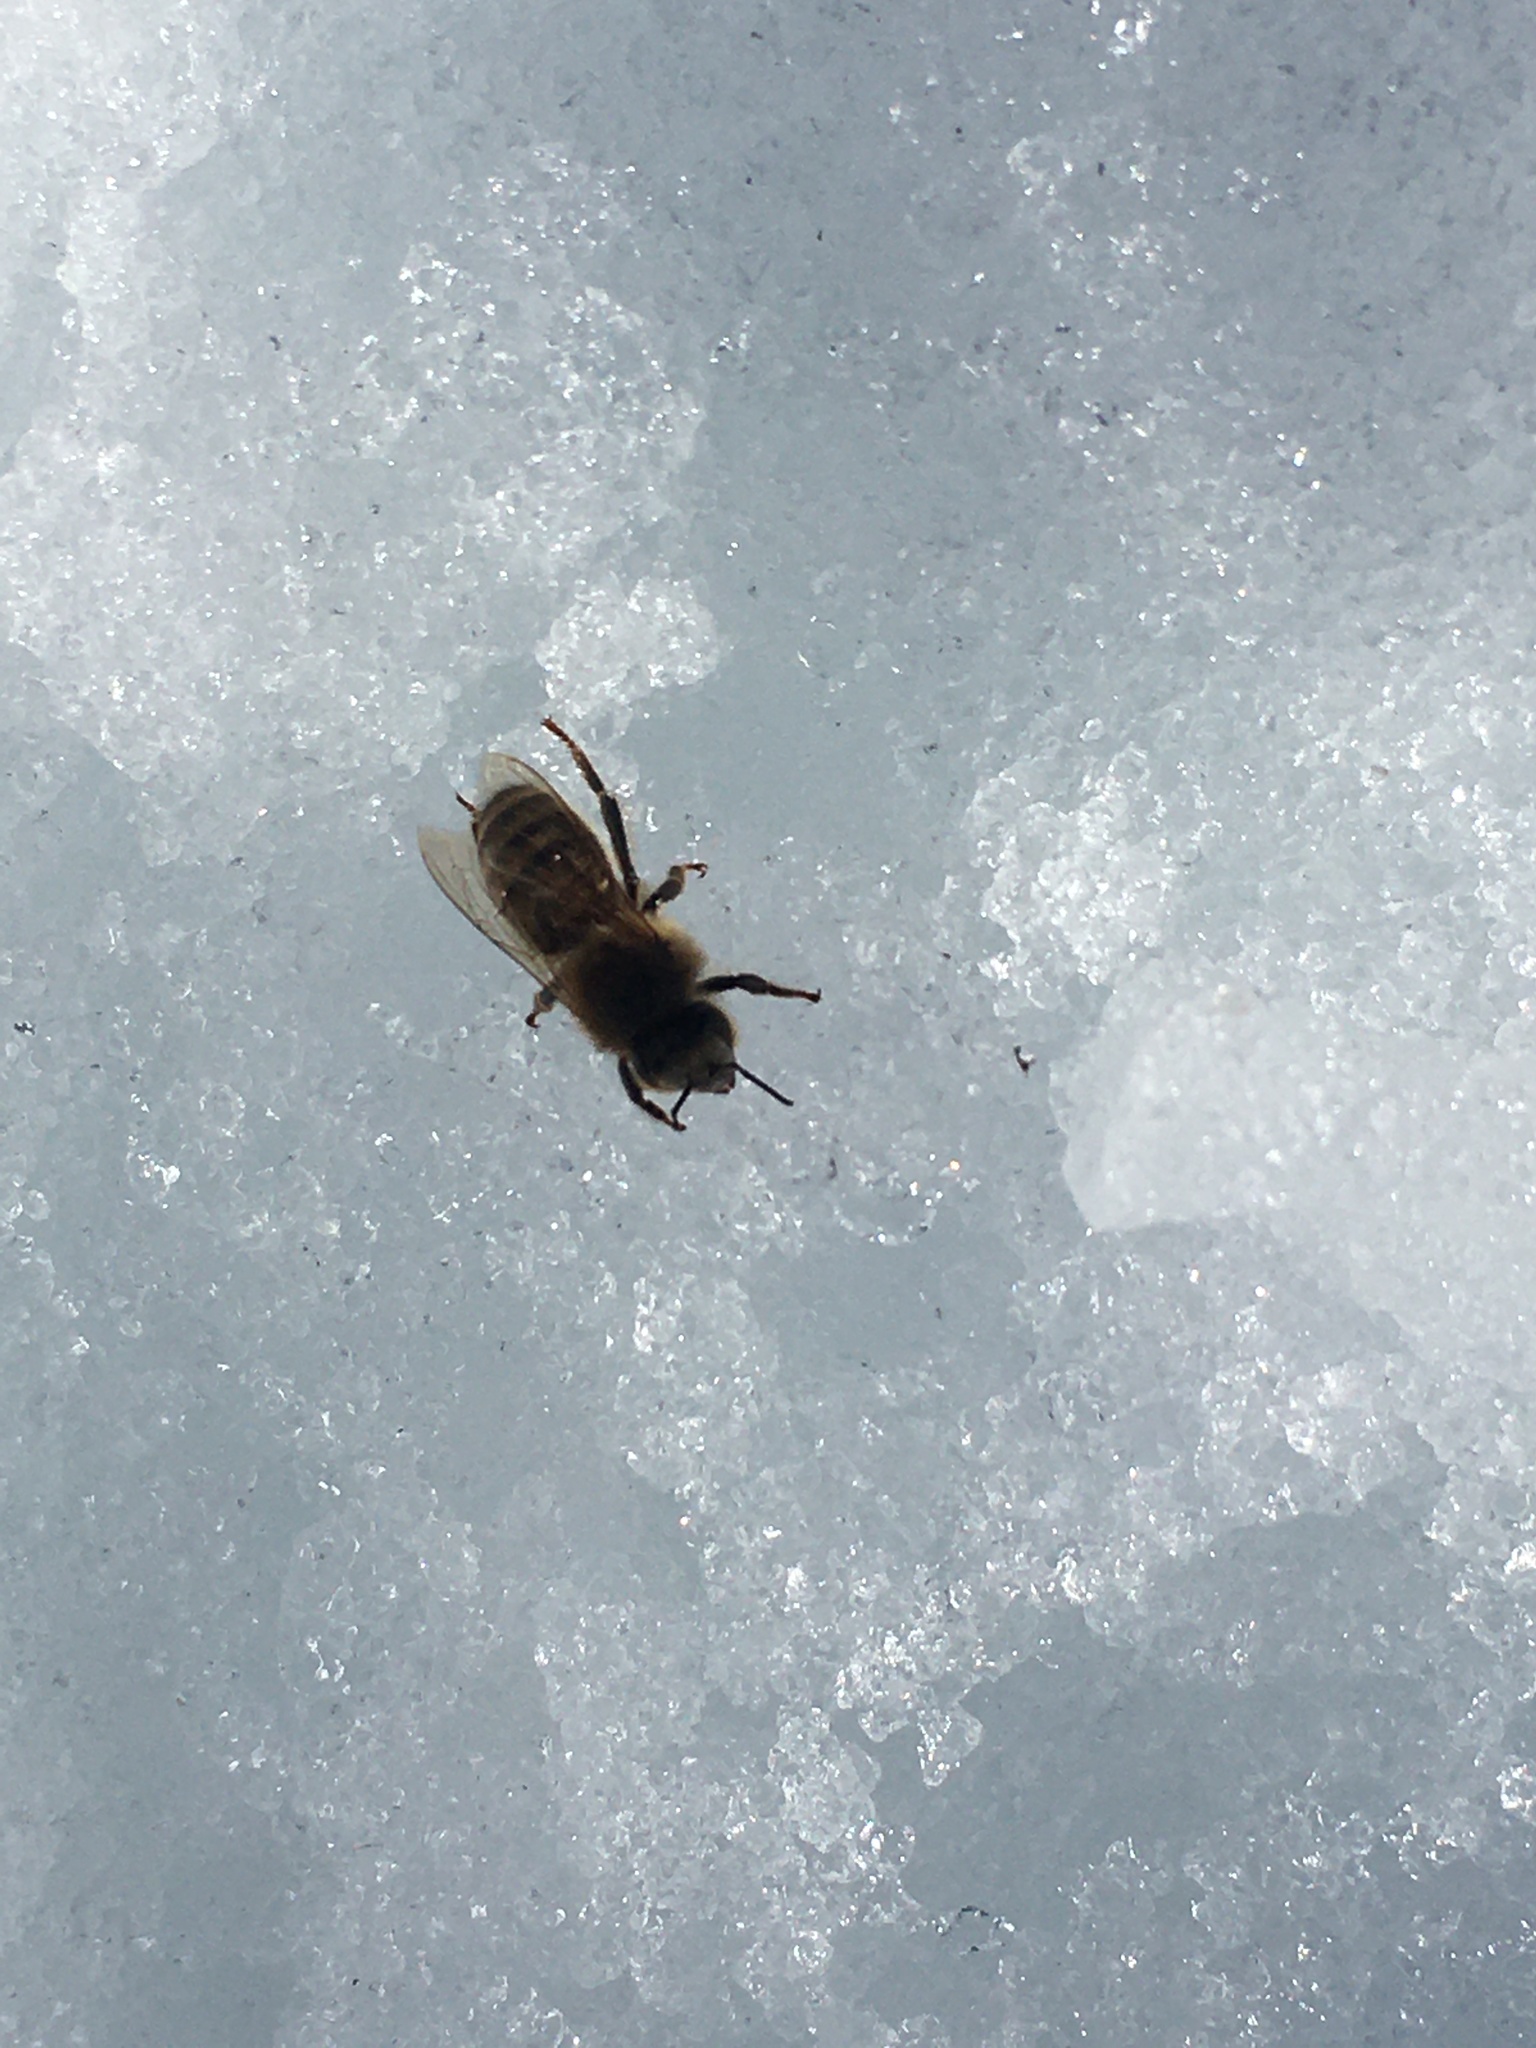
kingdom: Animalia
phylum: Arthropoda
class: Insecta
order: Hymenoptera
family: Apidae
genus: Apis
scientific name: Apis mellifera
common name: Honey bee
